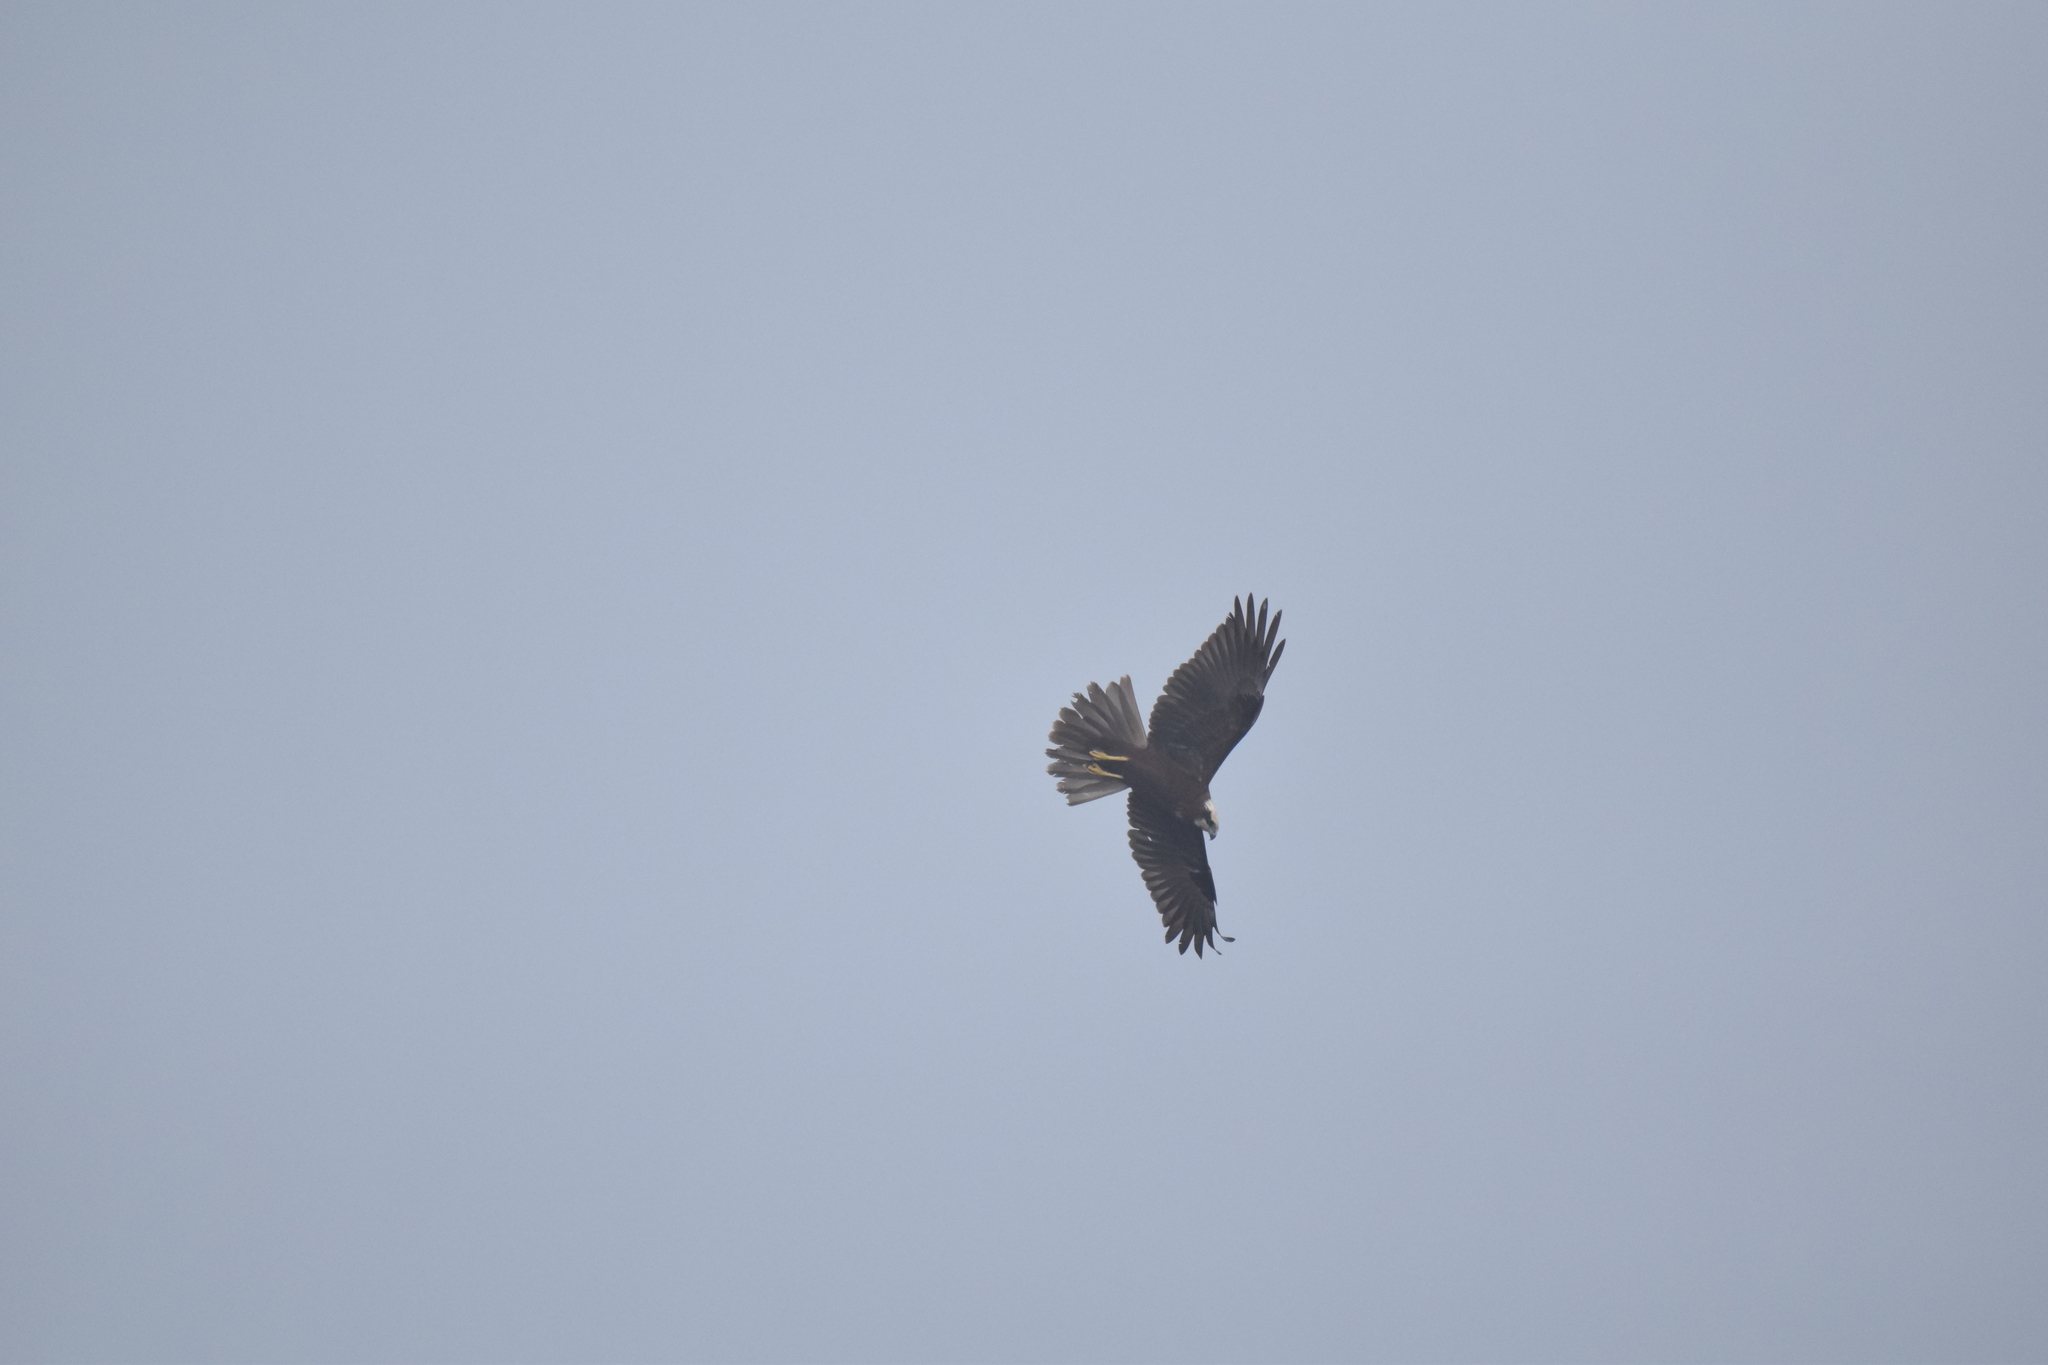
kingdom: Animalia
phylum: Chordata
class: Aves
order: Accipitriformes
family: Accipitridae
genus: Circus
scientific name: Circus aeruginosus
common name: Western marsh harrier
